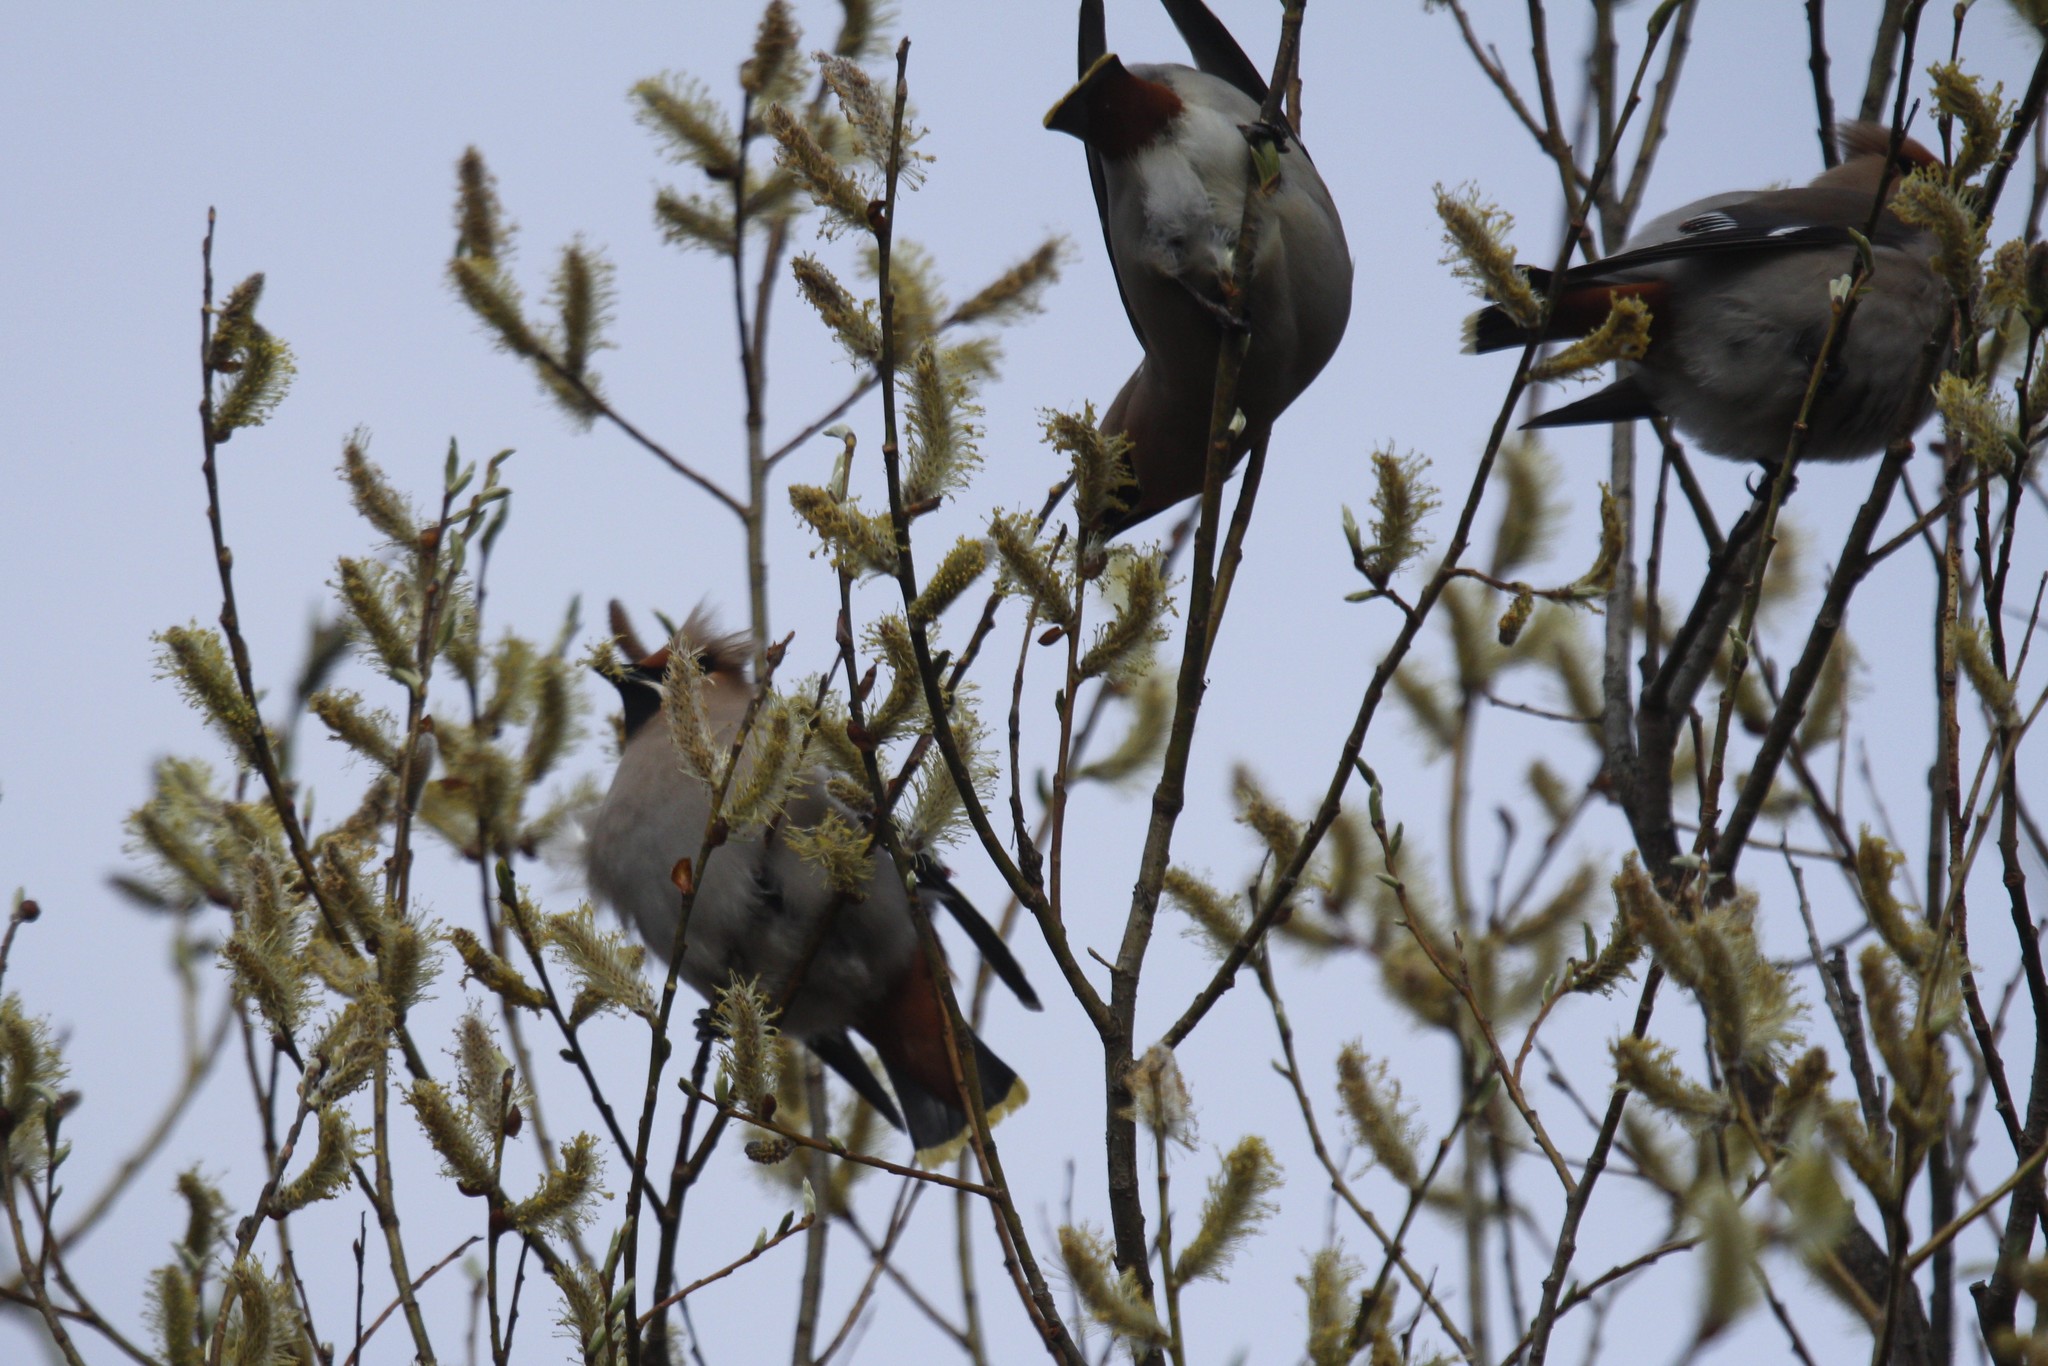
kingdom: Animalia
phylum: Chordata
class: Aves
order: Passeriformes
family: Bombycillidae
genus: Bombycilla
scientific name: Bombycilla garrulus
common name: Bohemian waxwing
